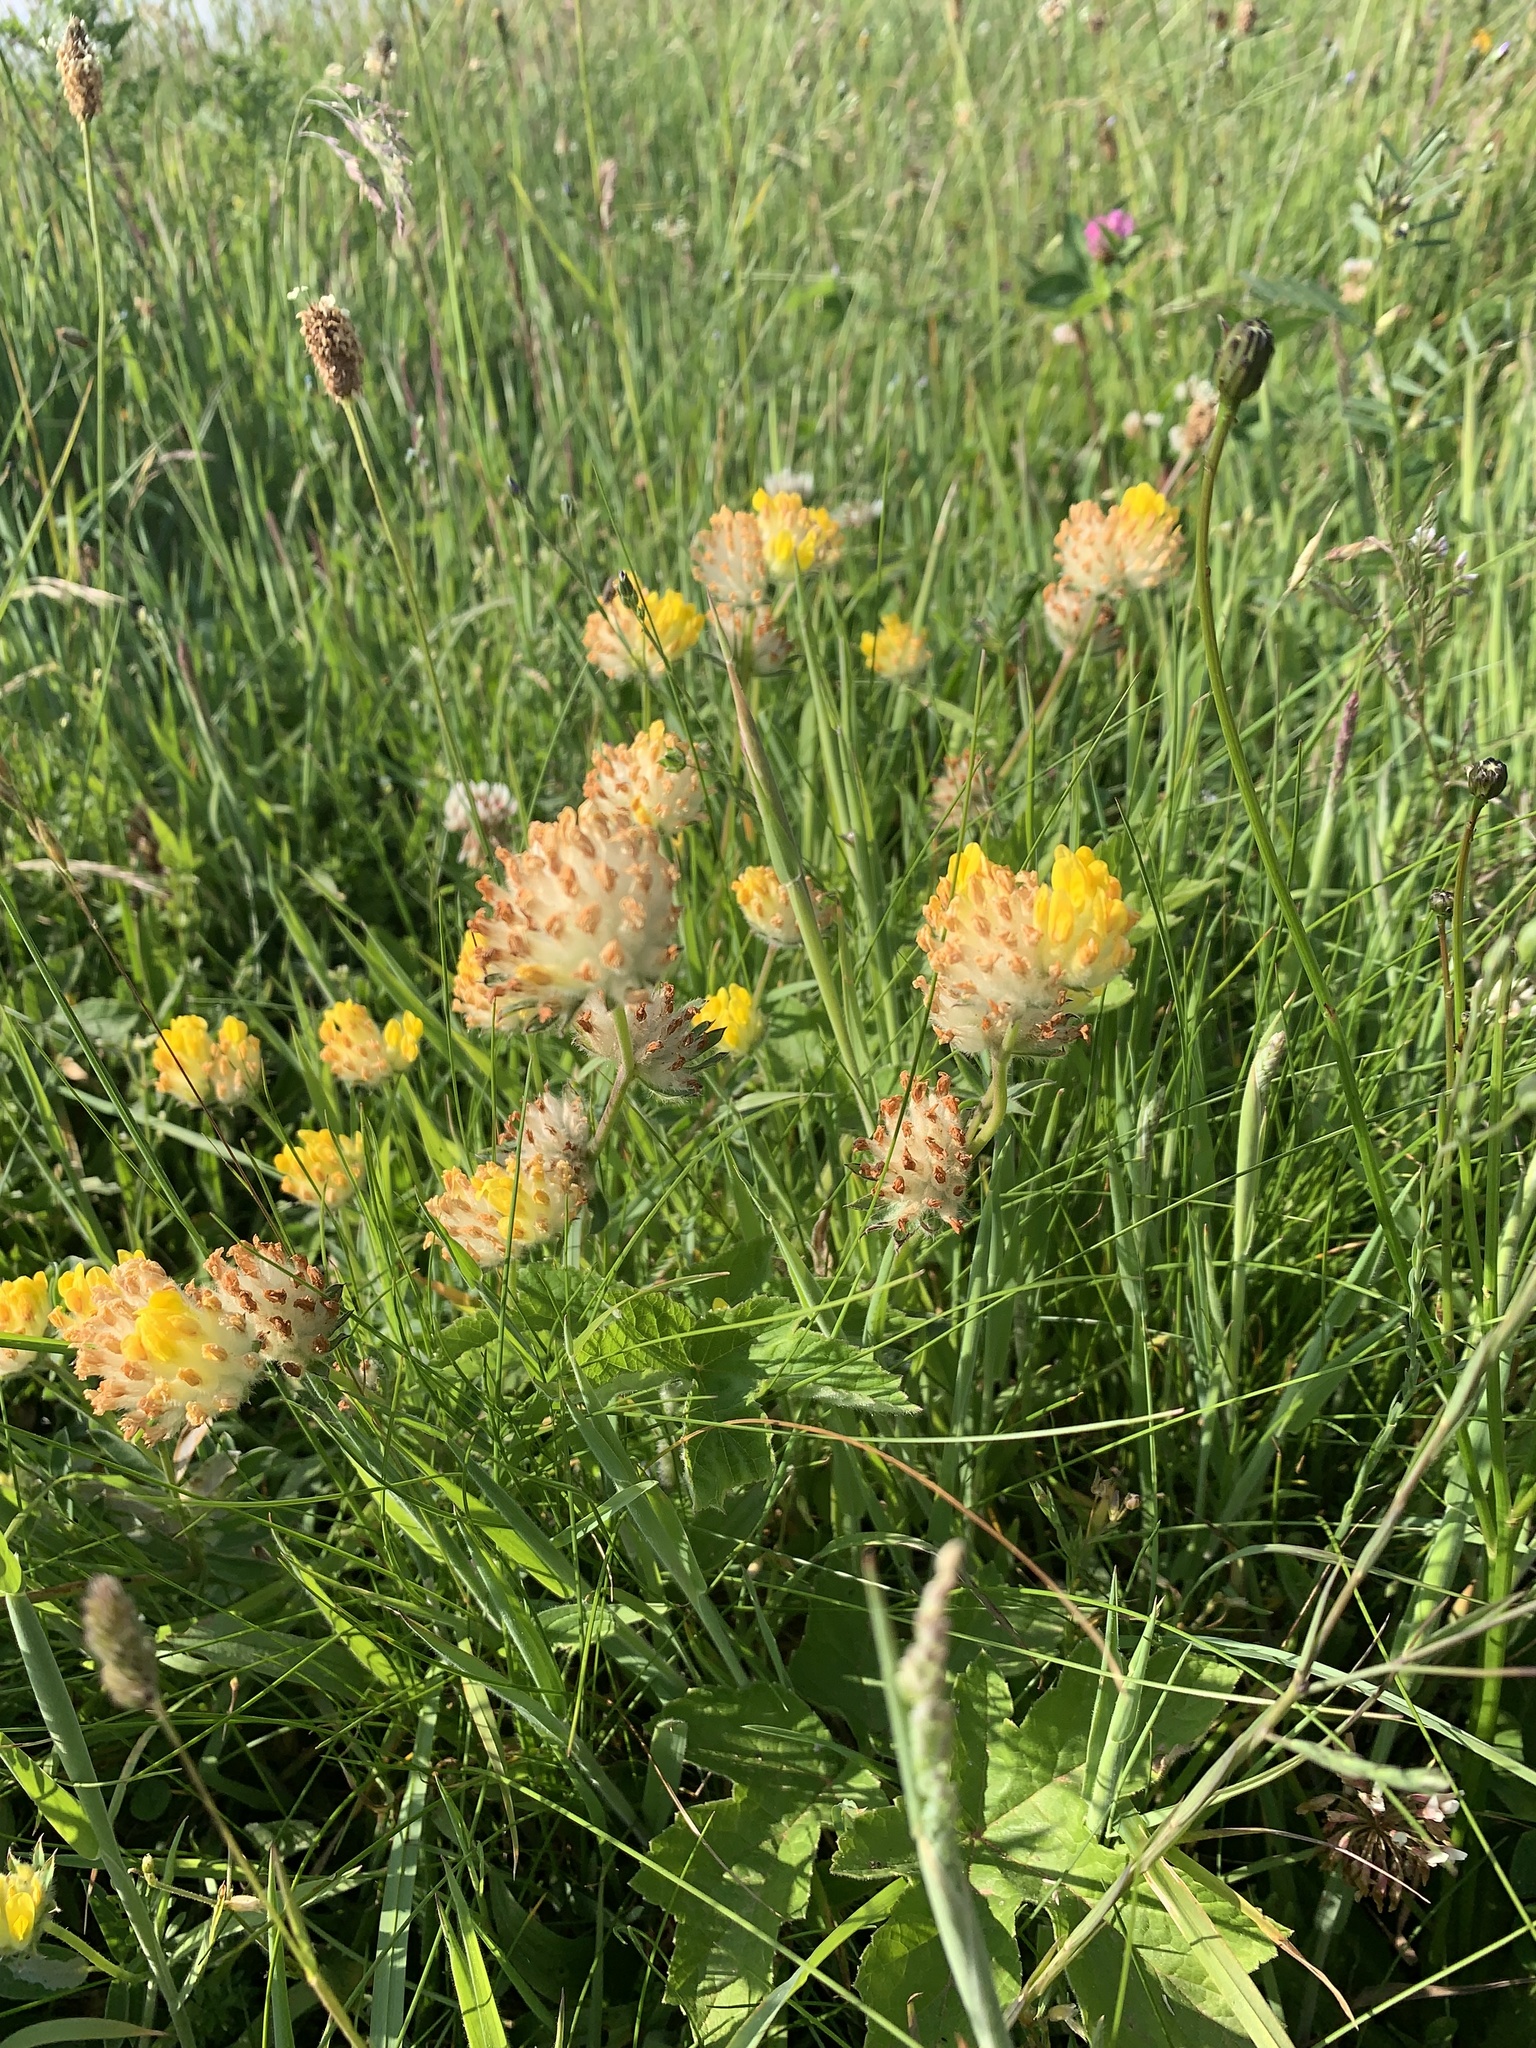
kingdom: Plantae
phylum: Tracheophyta
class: Magnoliopsida
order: Fabales
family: Fabaceae
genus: Anthyllis
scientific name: Anthyllis vulneraria
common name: Kidney vetch
